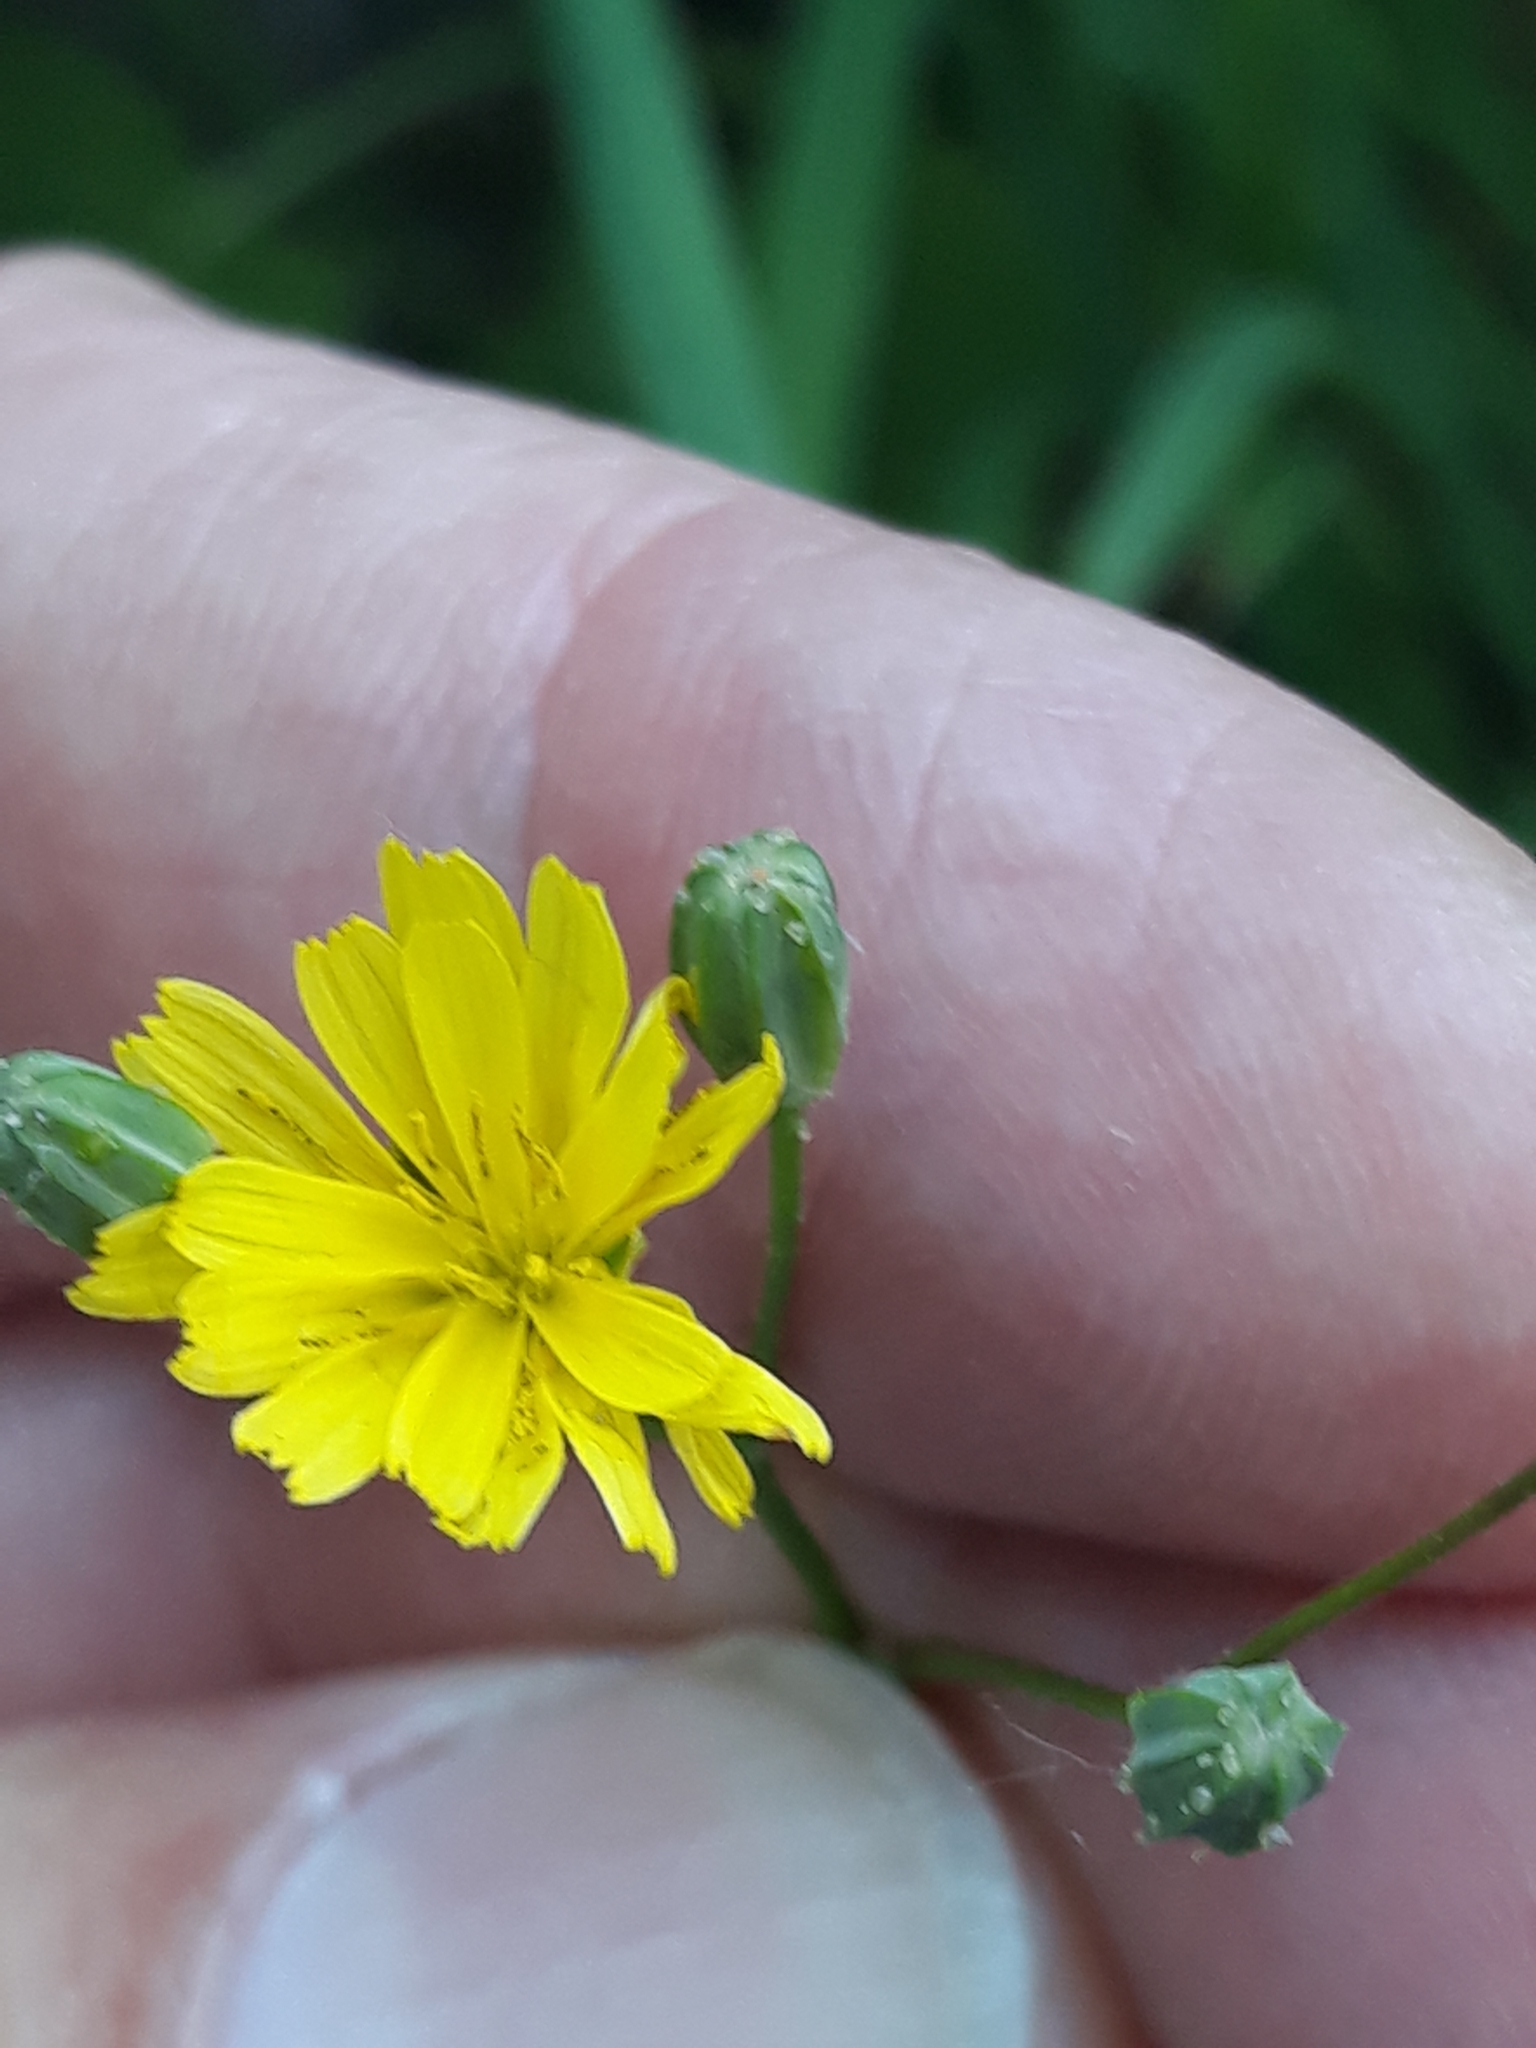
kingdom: Plantae
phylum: Tracheophyta
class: Magnoliopsida
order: Asterales
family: Asteraceae
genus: Lapsana
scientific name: Lapsana communis
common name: Nipplewort
